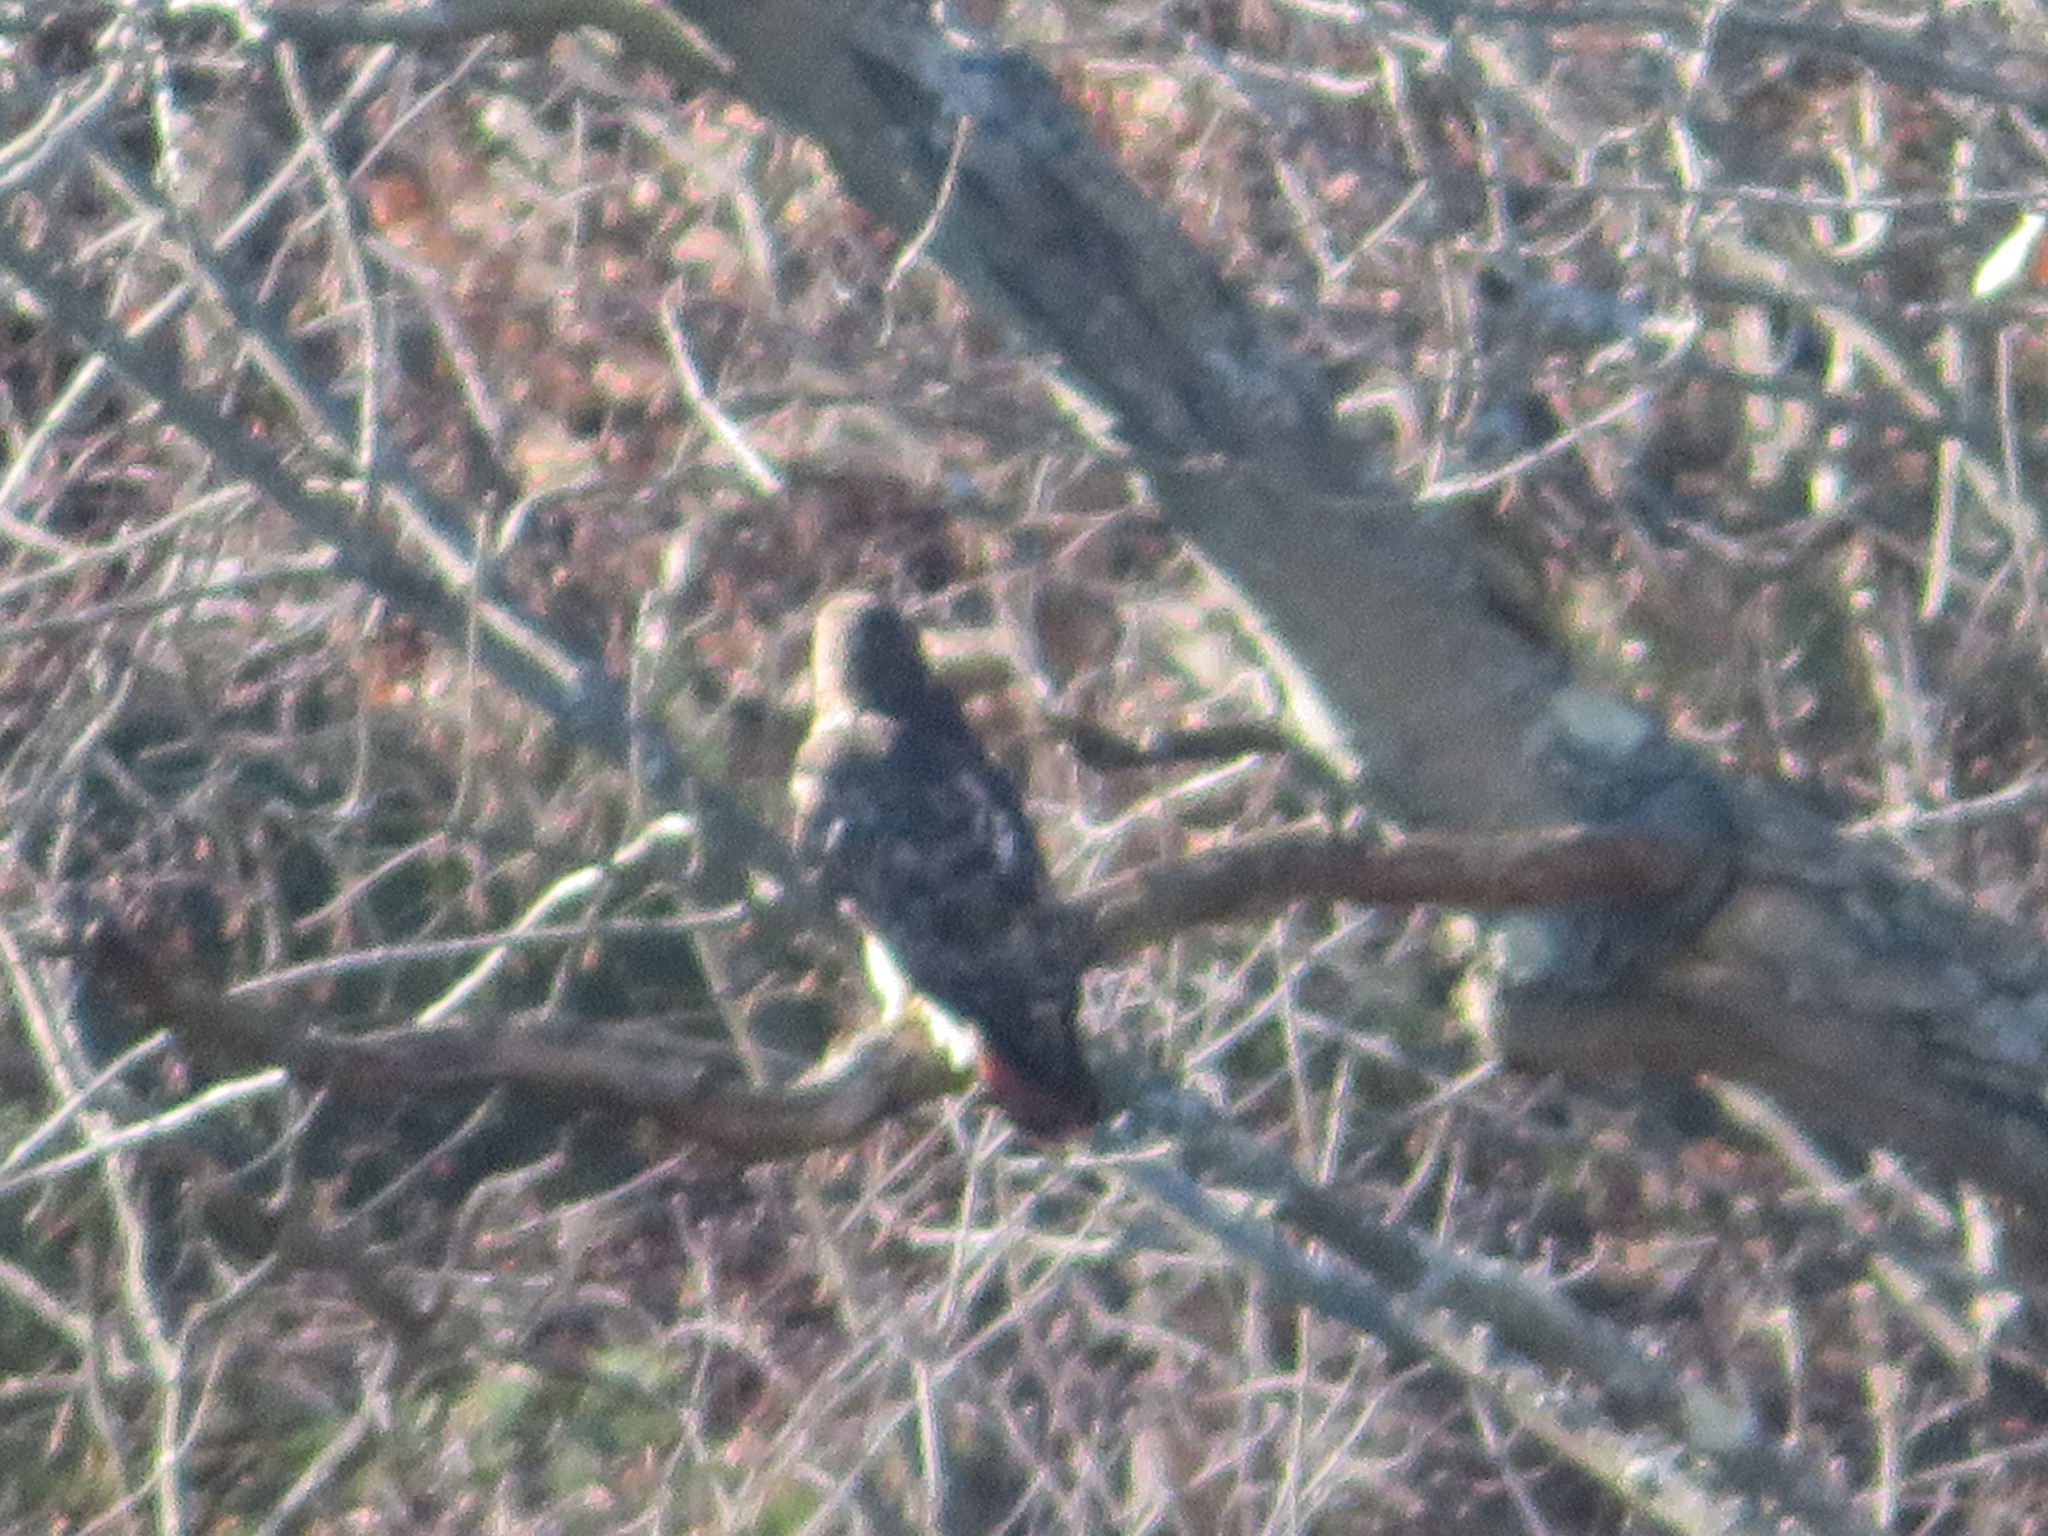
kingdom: Animalia
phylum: Chordata
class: Aves
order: Accipitriformes
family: Accipitridae
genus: Buteo
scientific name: Buteo jamaicensis
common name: Red-tailed hawk
